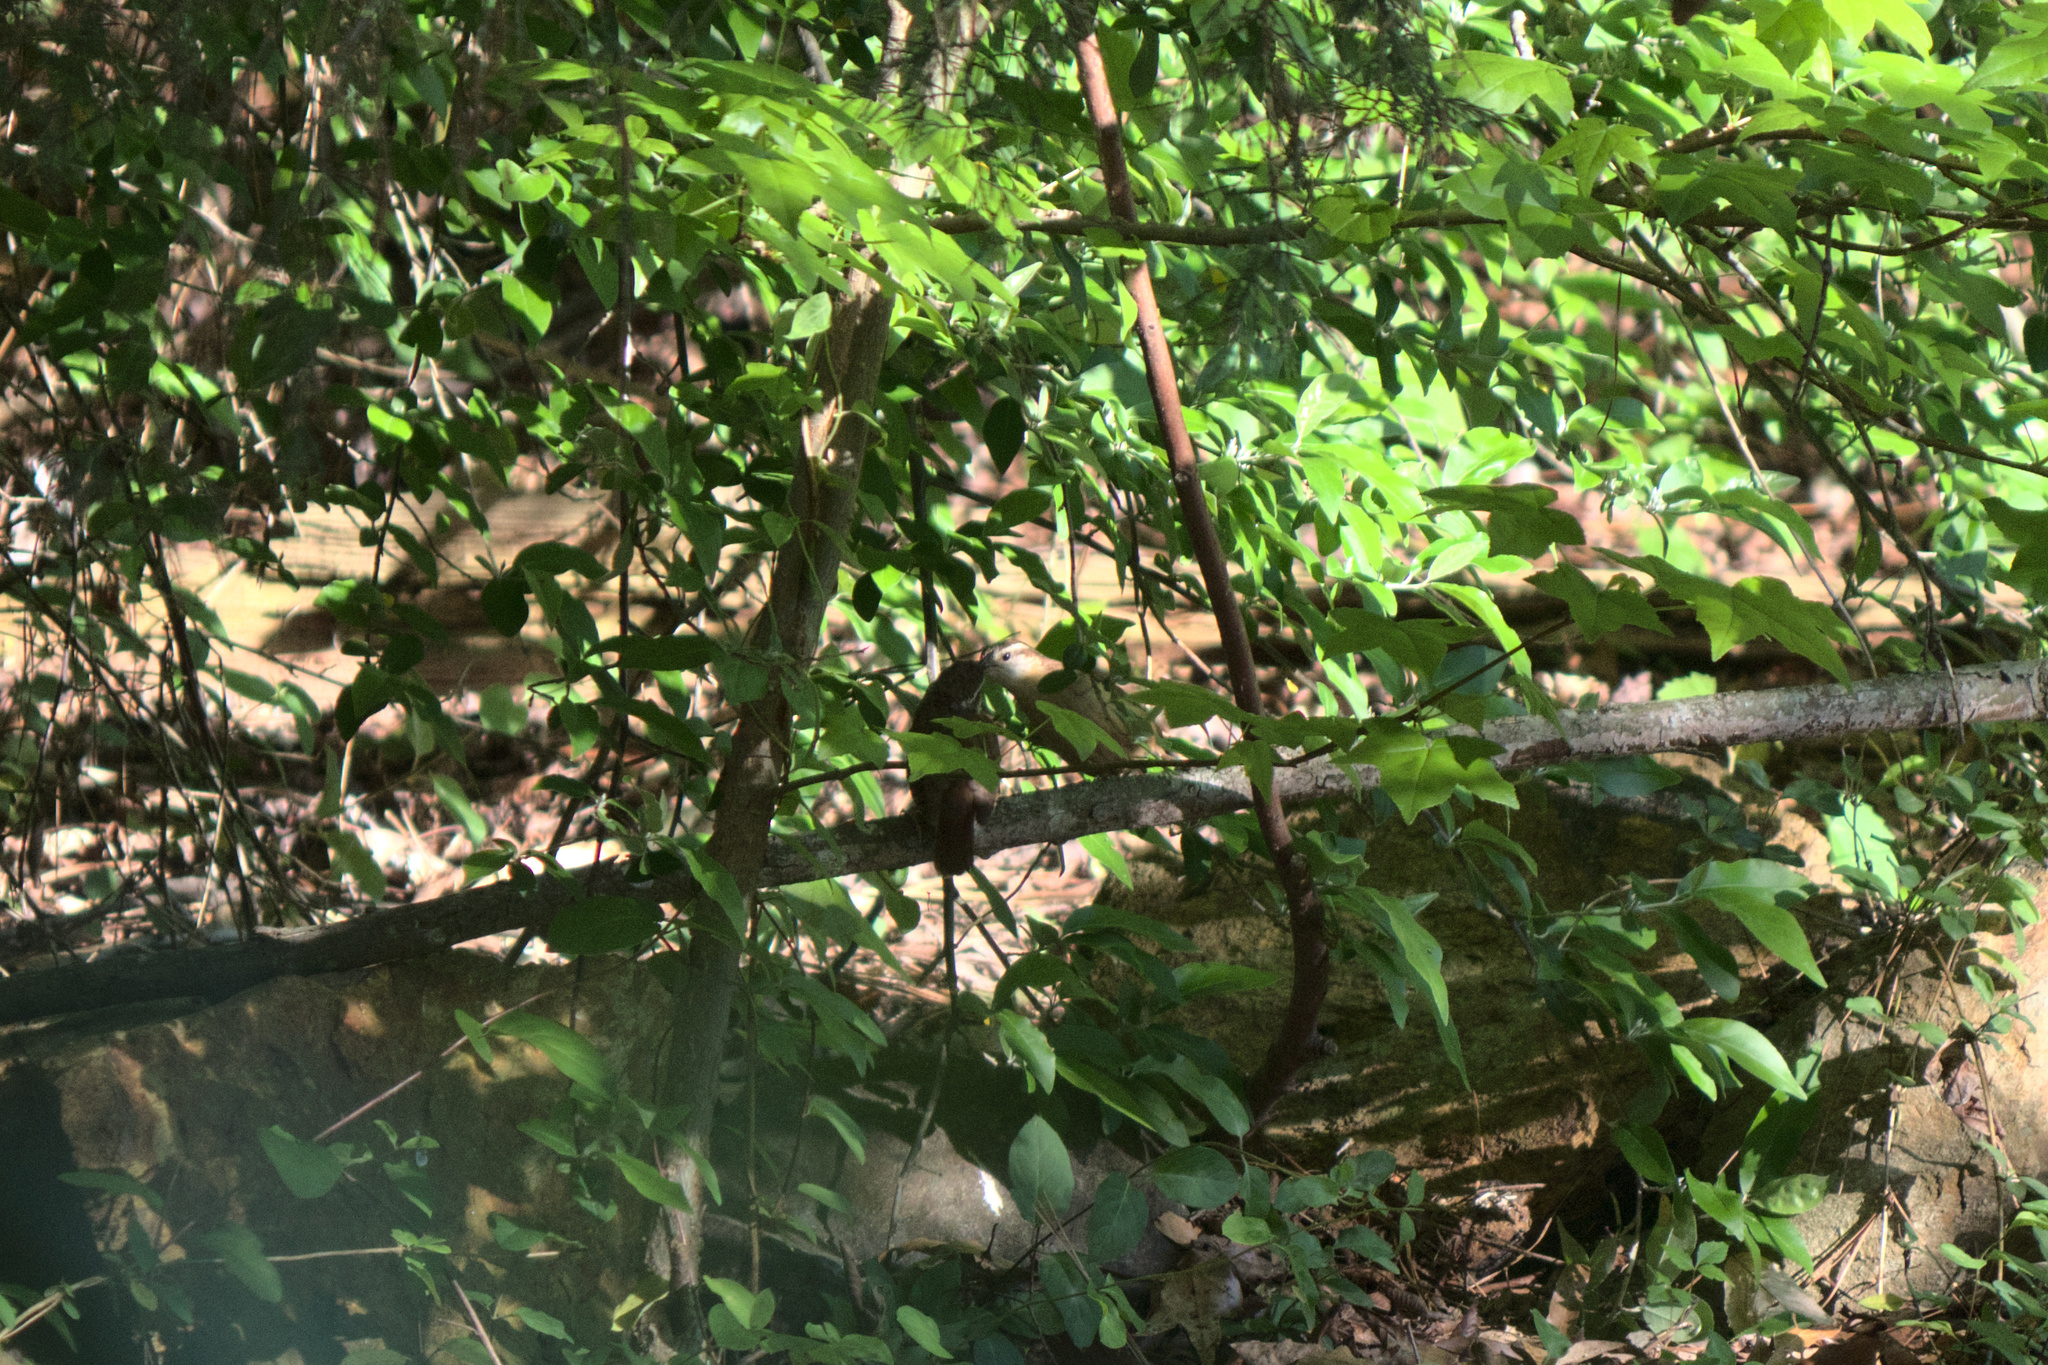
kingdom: Animalia
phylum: Chordata
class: Aves
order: Passeriformes
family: Troglodytidae
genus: Thryothorus
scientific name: Thryothorus ludovicianus
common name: Carolina wren
